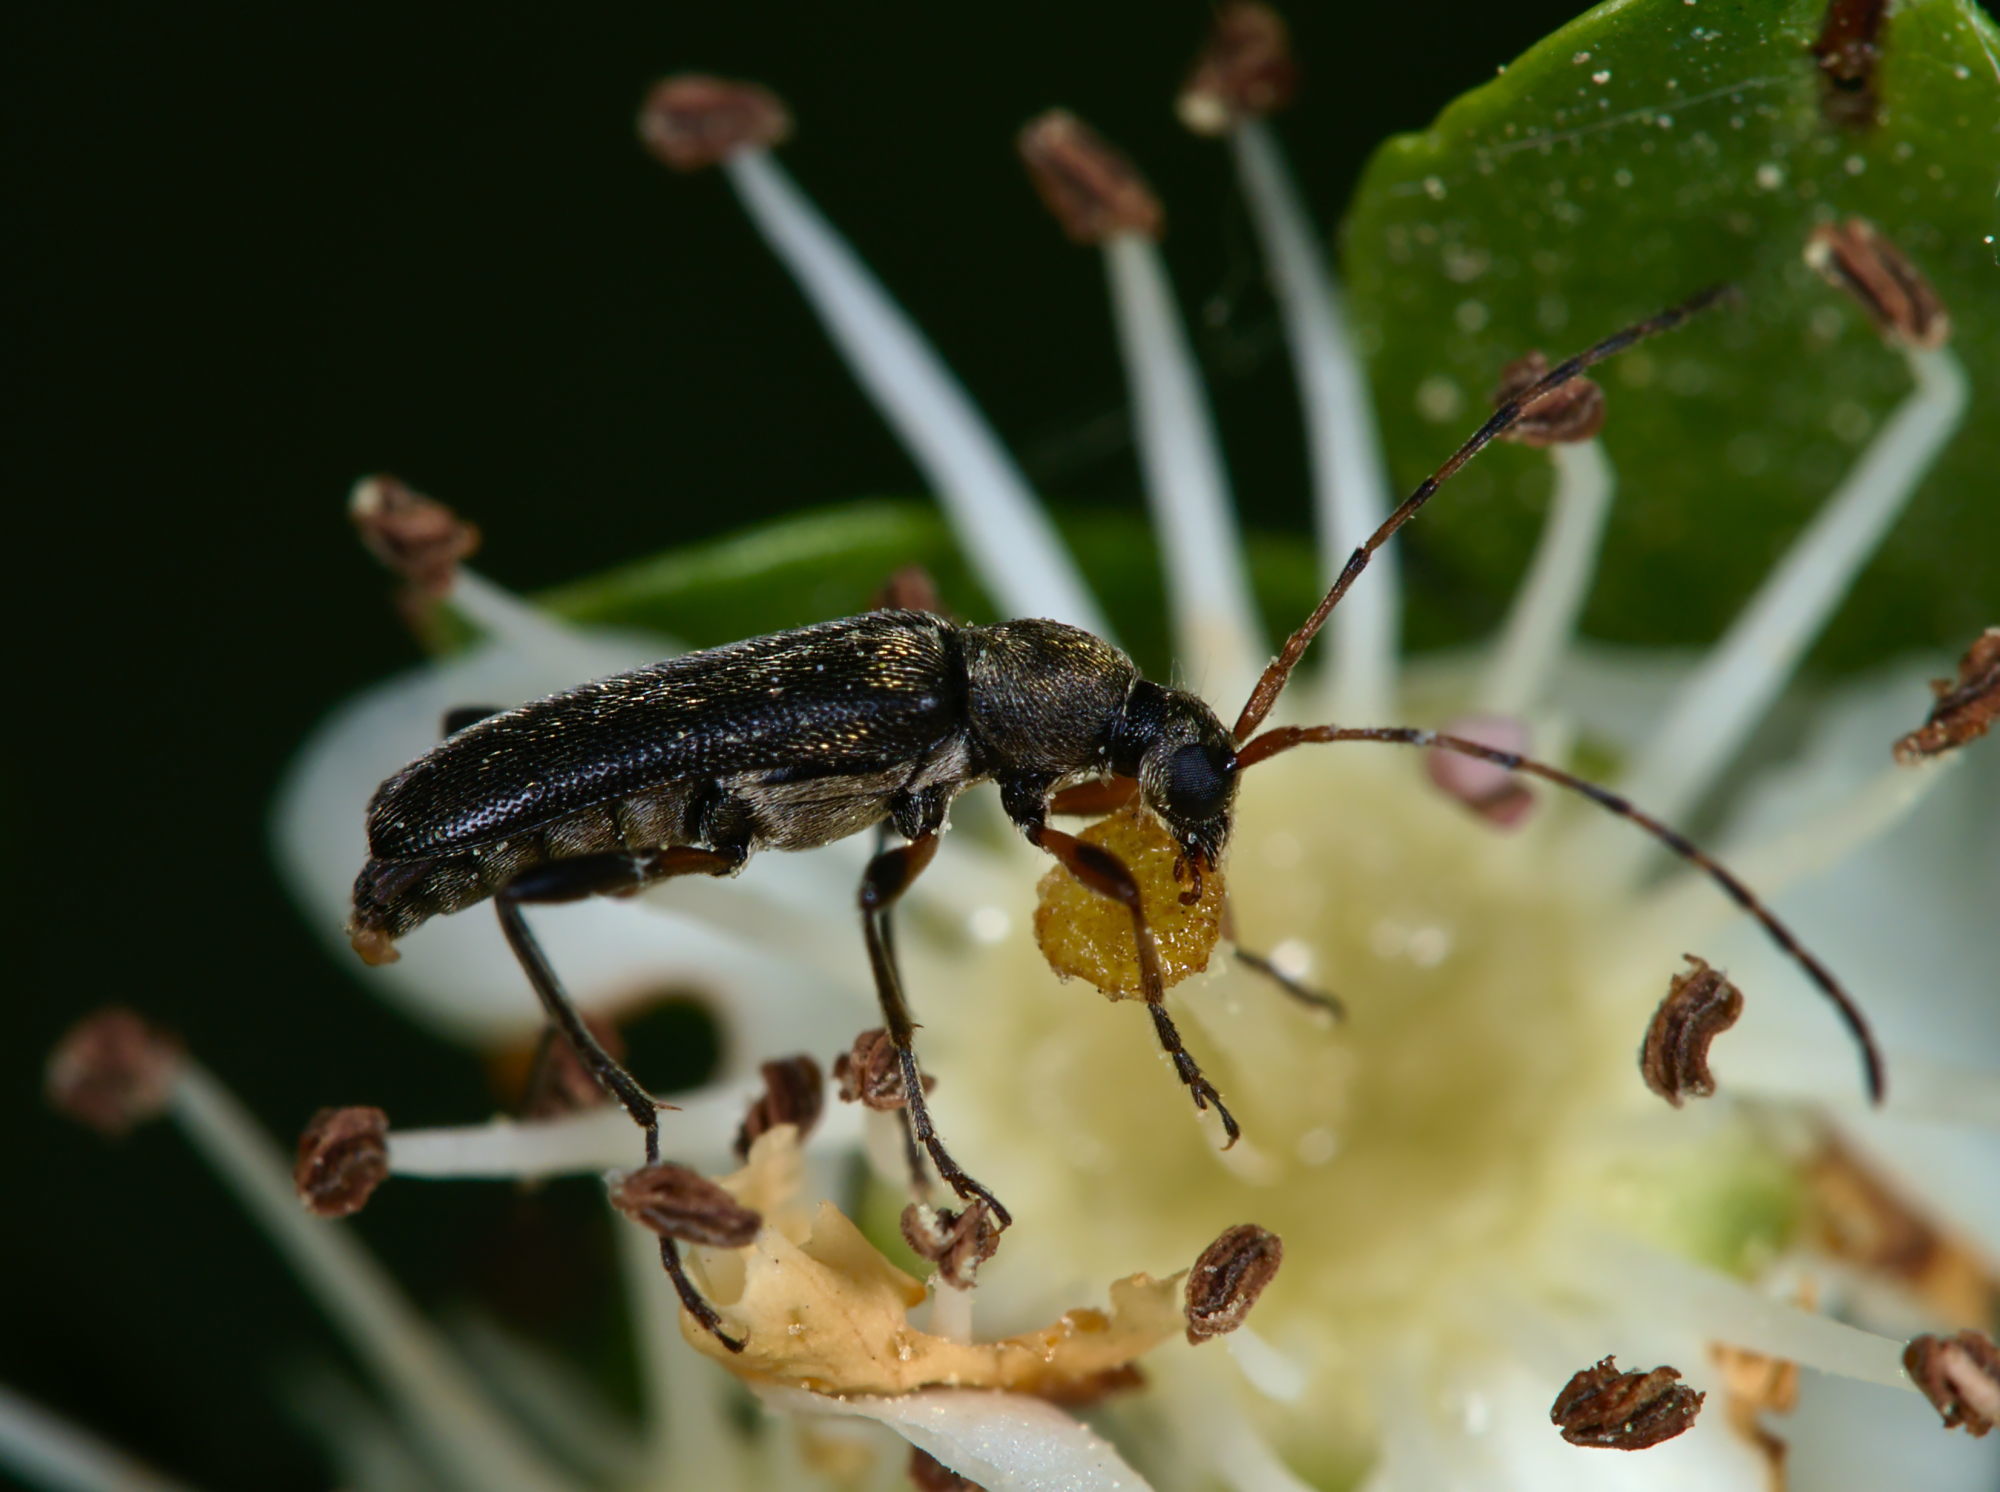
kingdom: Animalia
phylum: Arthropoda
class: Insecta
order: Coleoptera
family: Cerambycidae
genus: Grammoptera
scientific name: Grammoptera ruficornis
